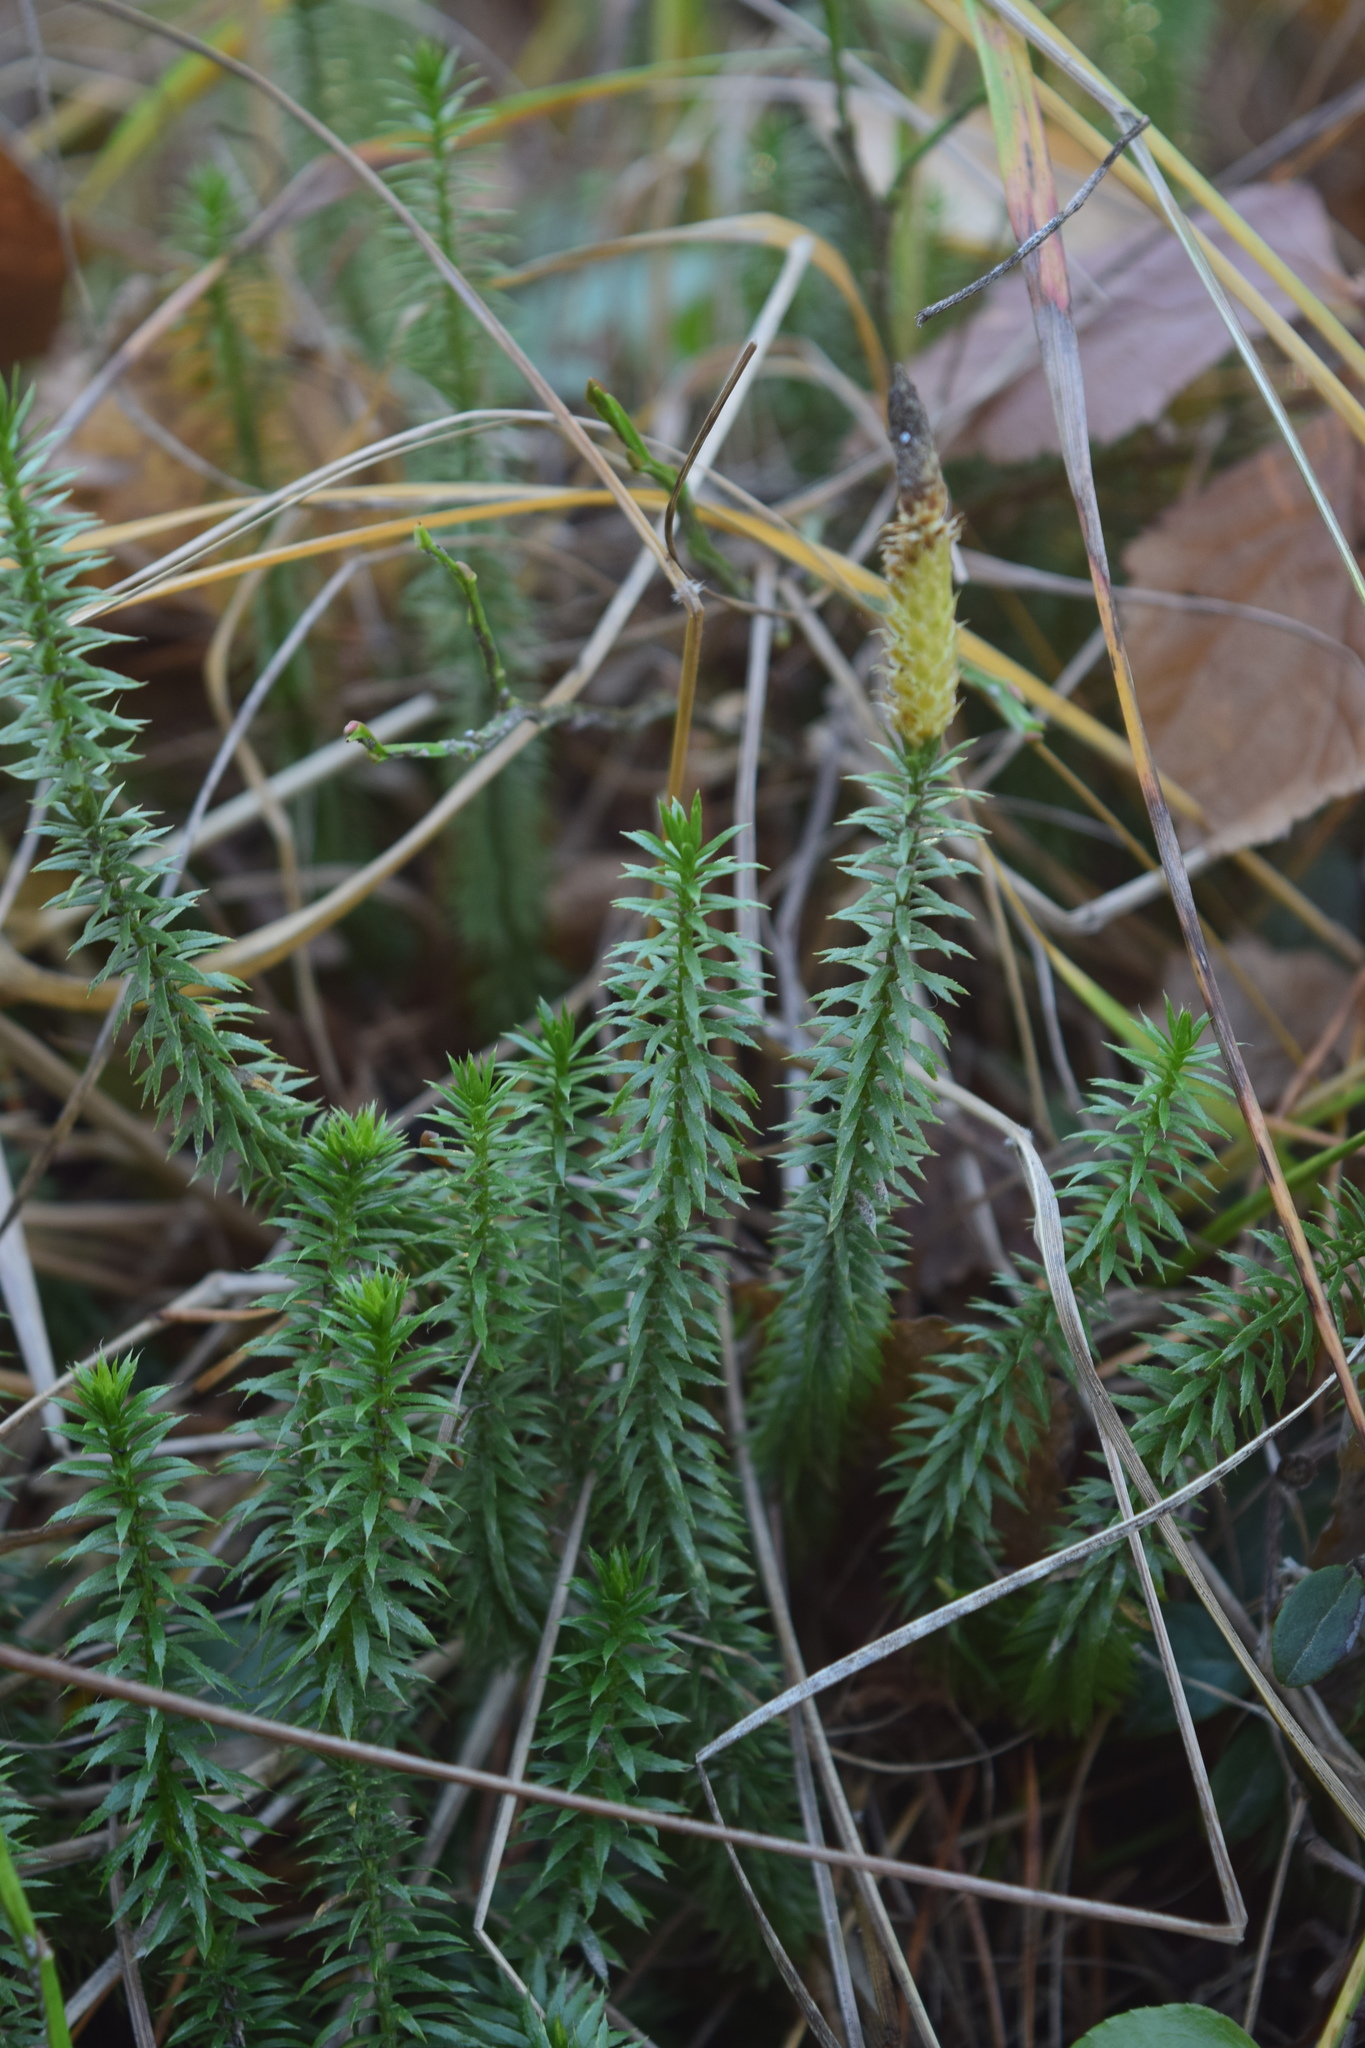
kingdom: Plantae
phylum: Tracheophyta
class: Lycopodiopsida
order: Lycopodiales
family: Lycopodiaceae
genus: Spinulum
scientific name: Spinulum annotinum
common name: Interrupted club-moss
